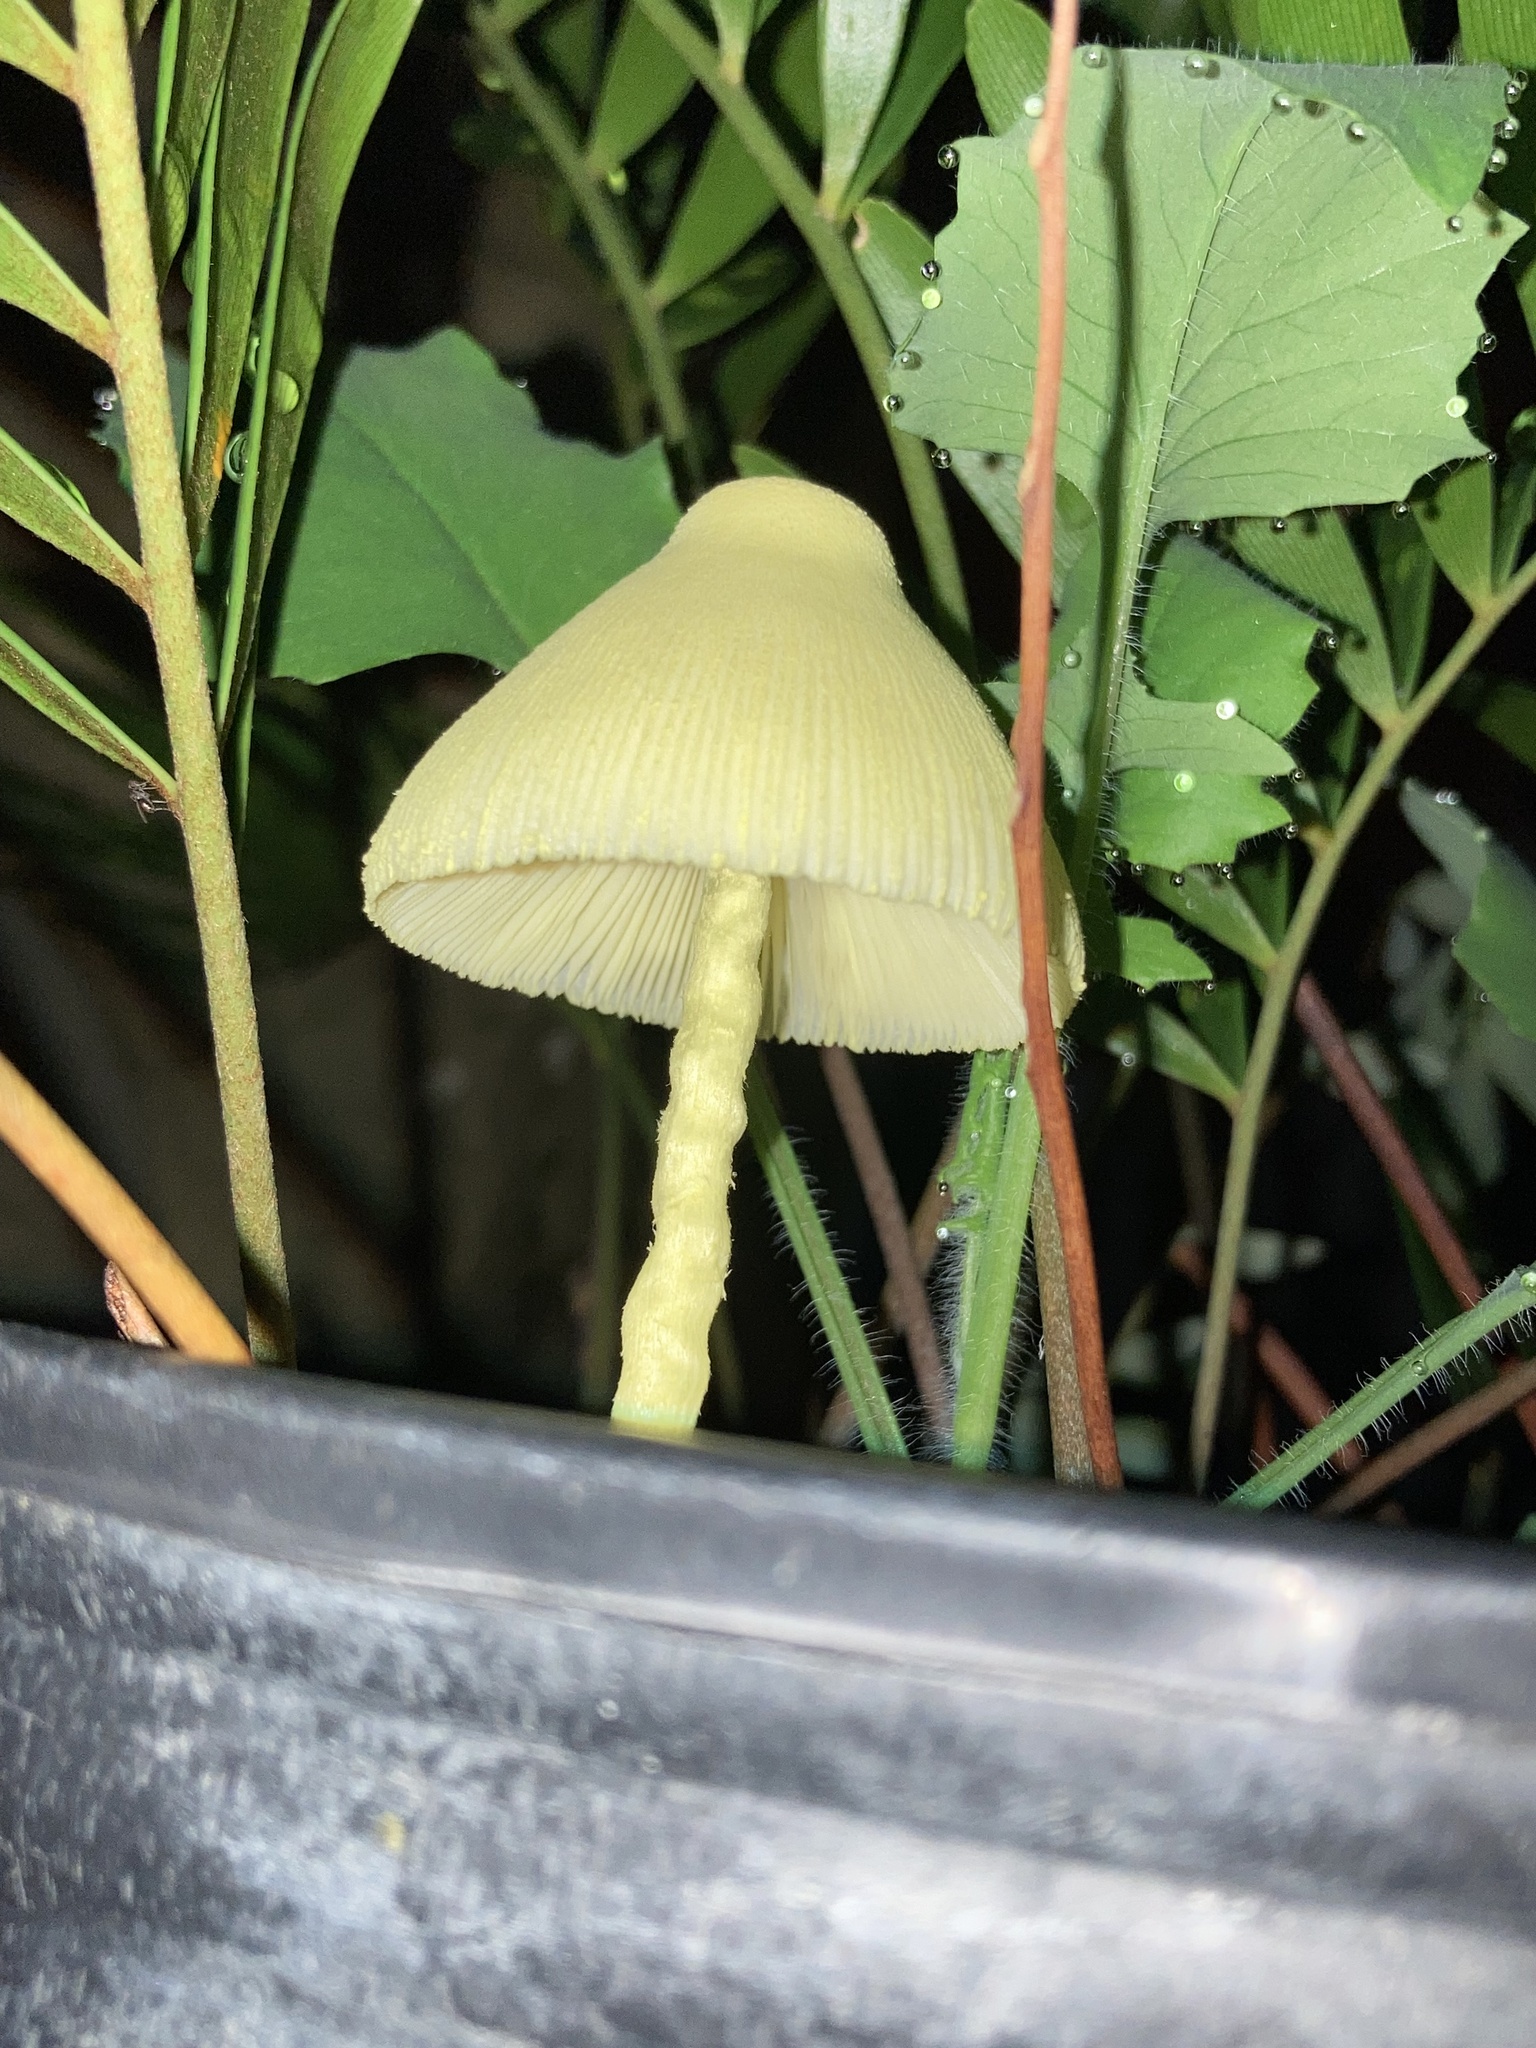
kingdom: Fungi
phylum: Basidiomycota
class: Agaricomycetes
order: Agaricales
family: Agaricaceae
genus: Leucocoprinus
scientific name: Leucocoprinus birnbaumii
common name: Plantpot dapperling
